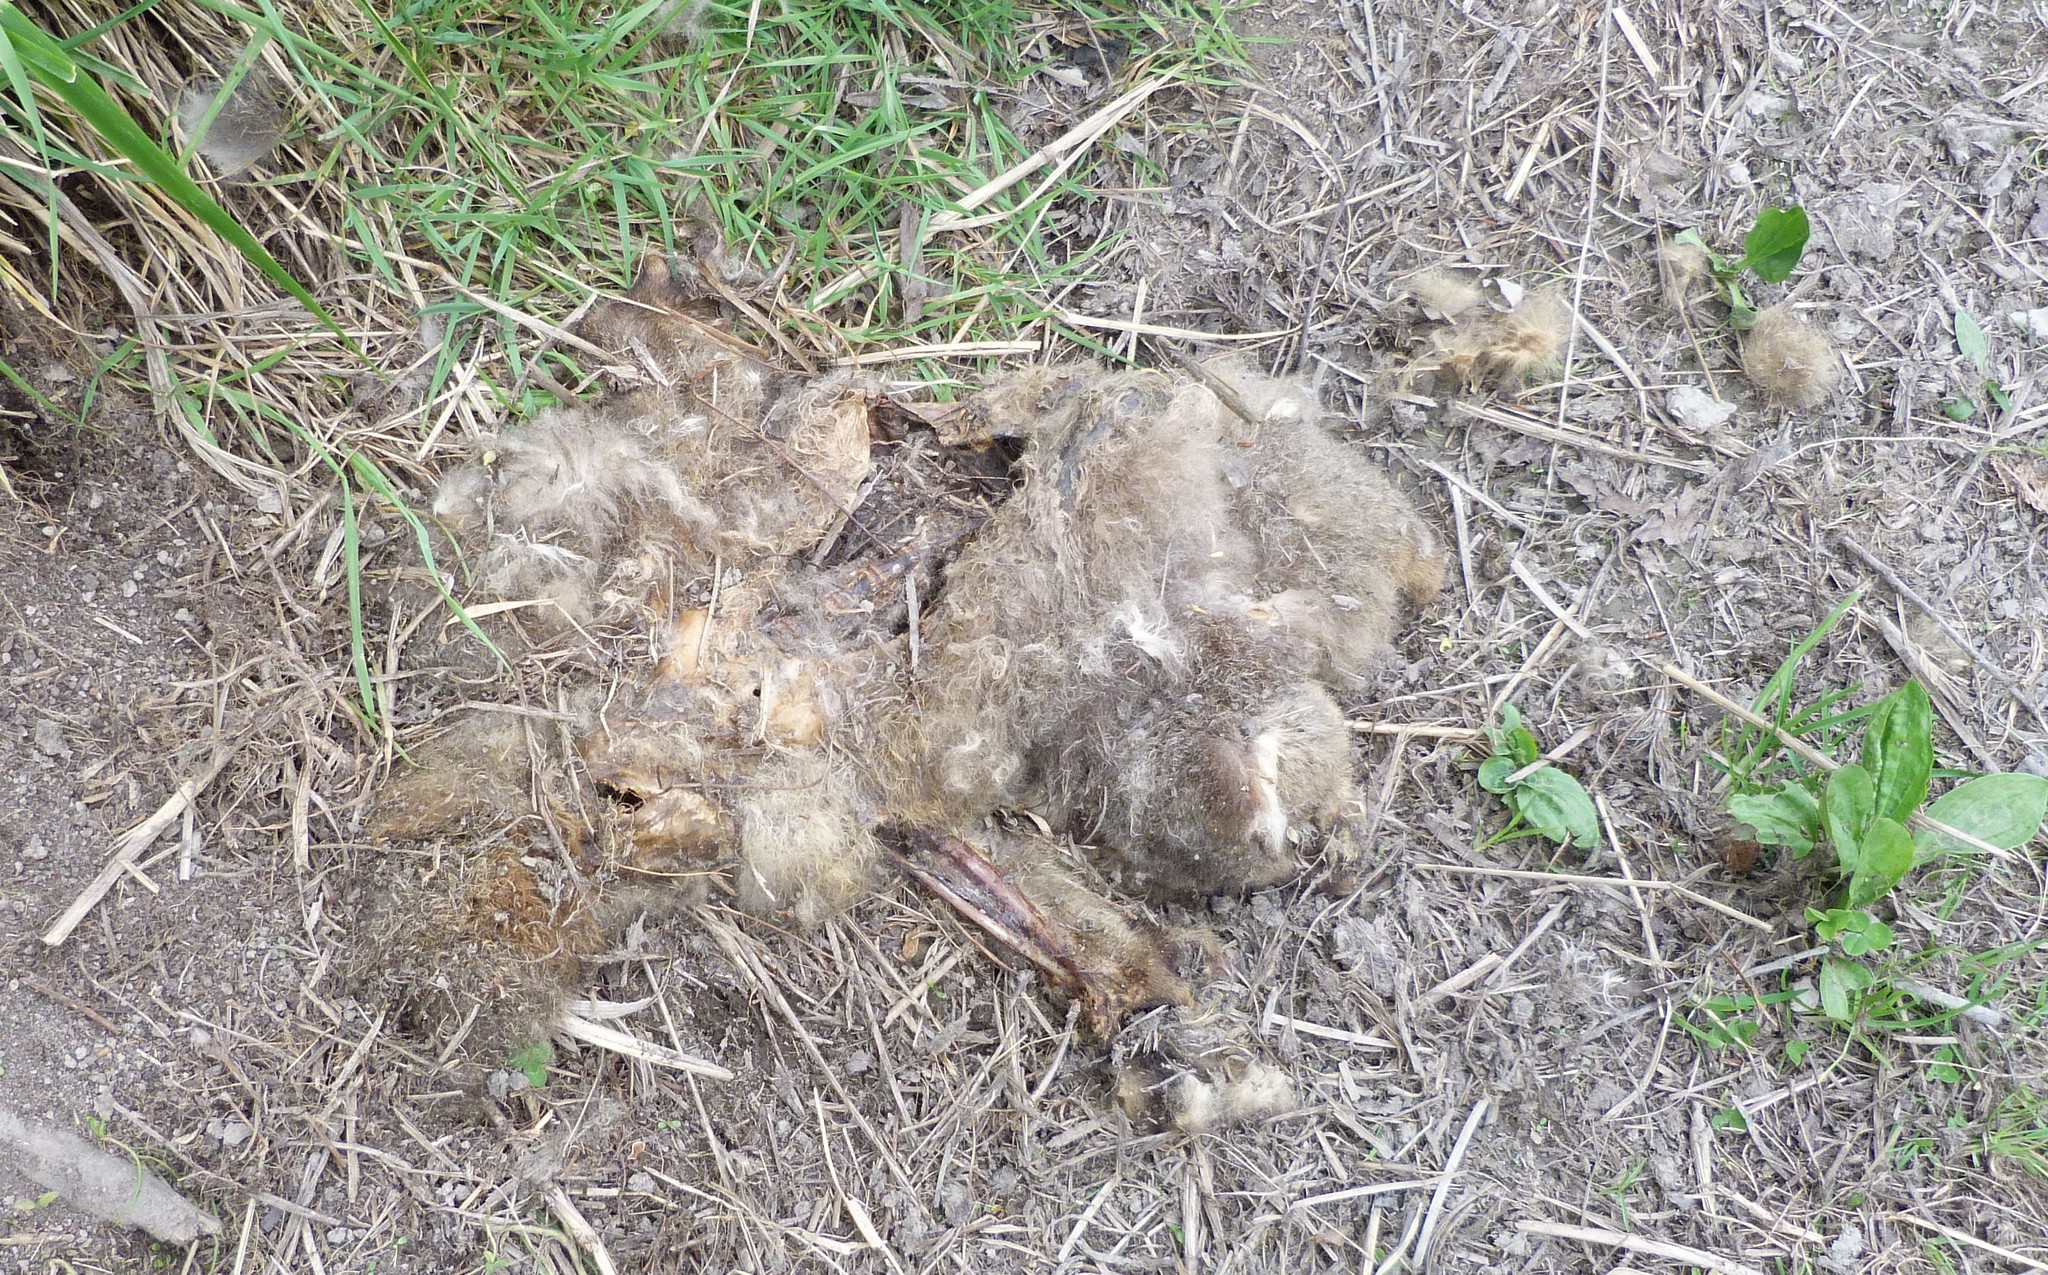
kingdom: Animalia
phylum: Chordata
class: Mammalia
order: Diprotodontia
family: Phalangeridae
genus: Trichosurus
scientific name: Trichosurus vulpecula
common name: Common brushtail
